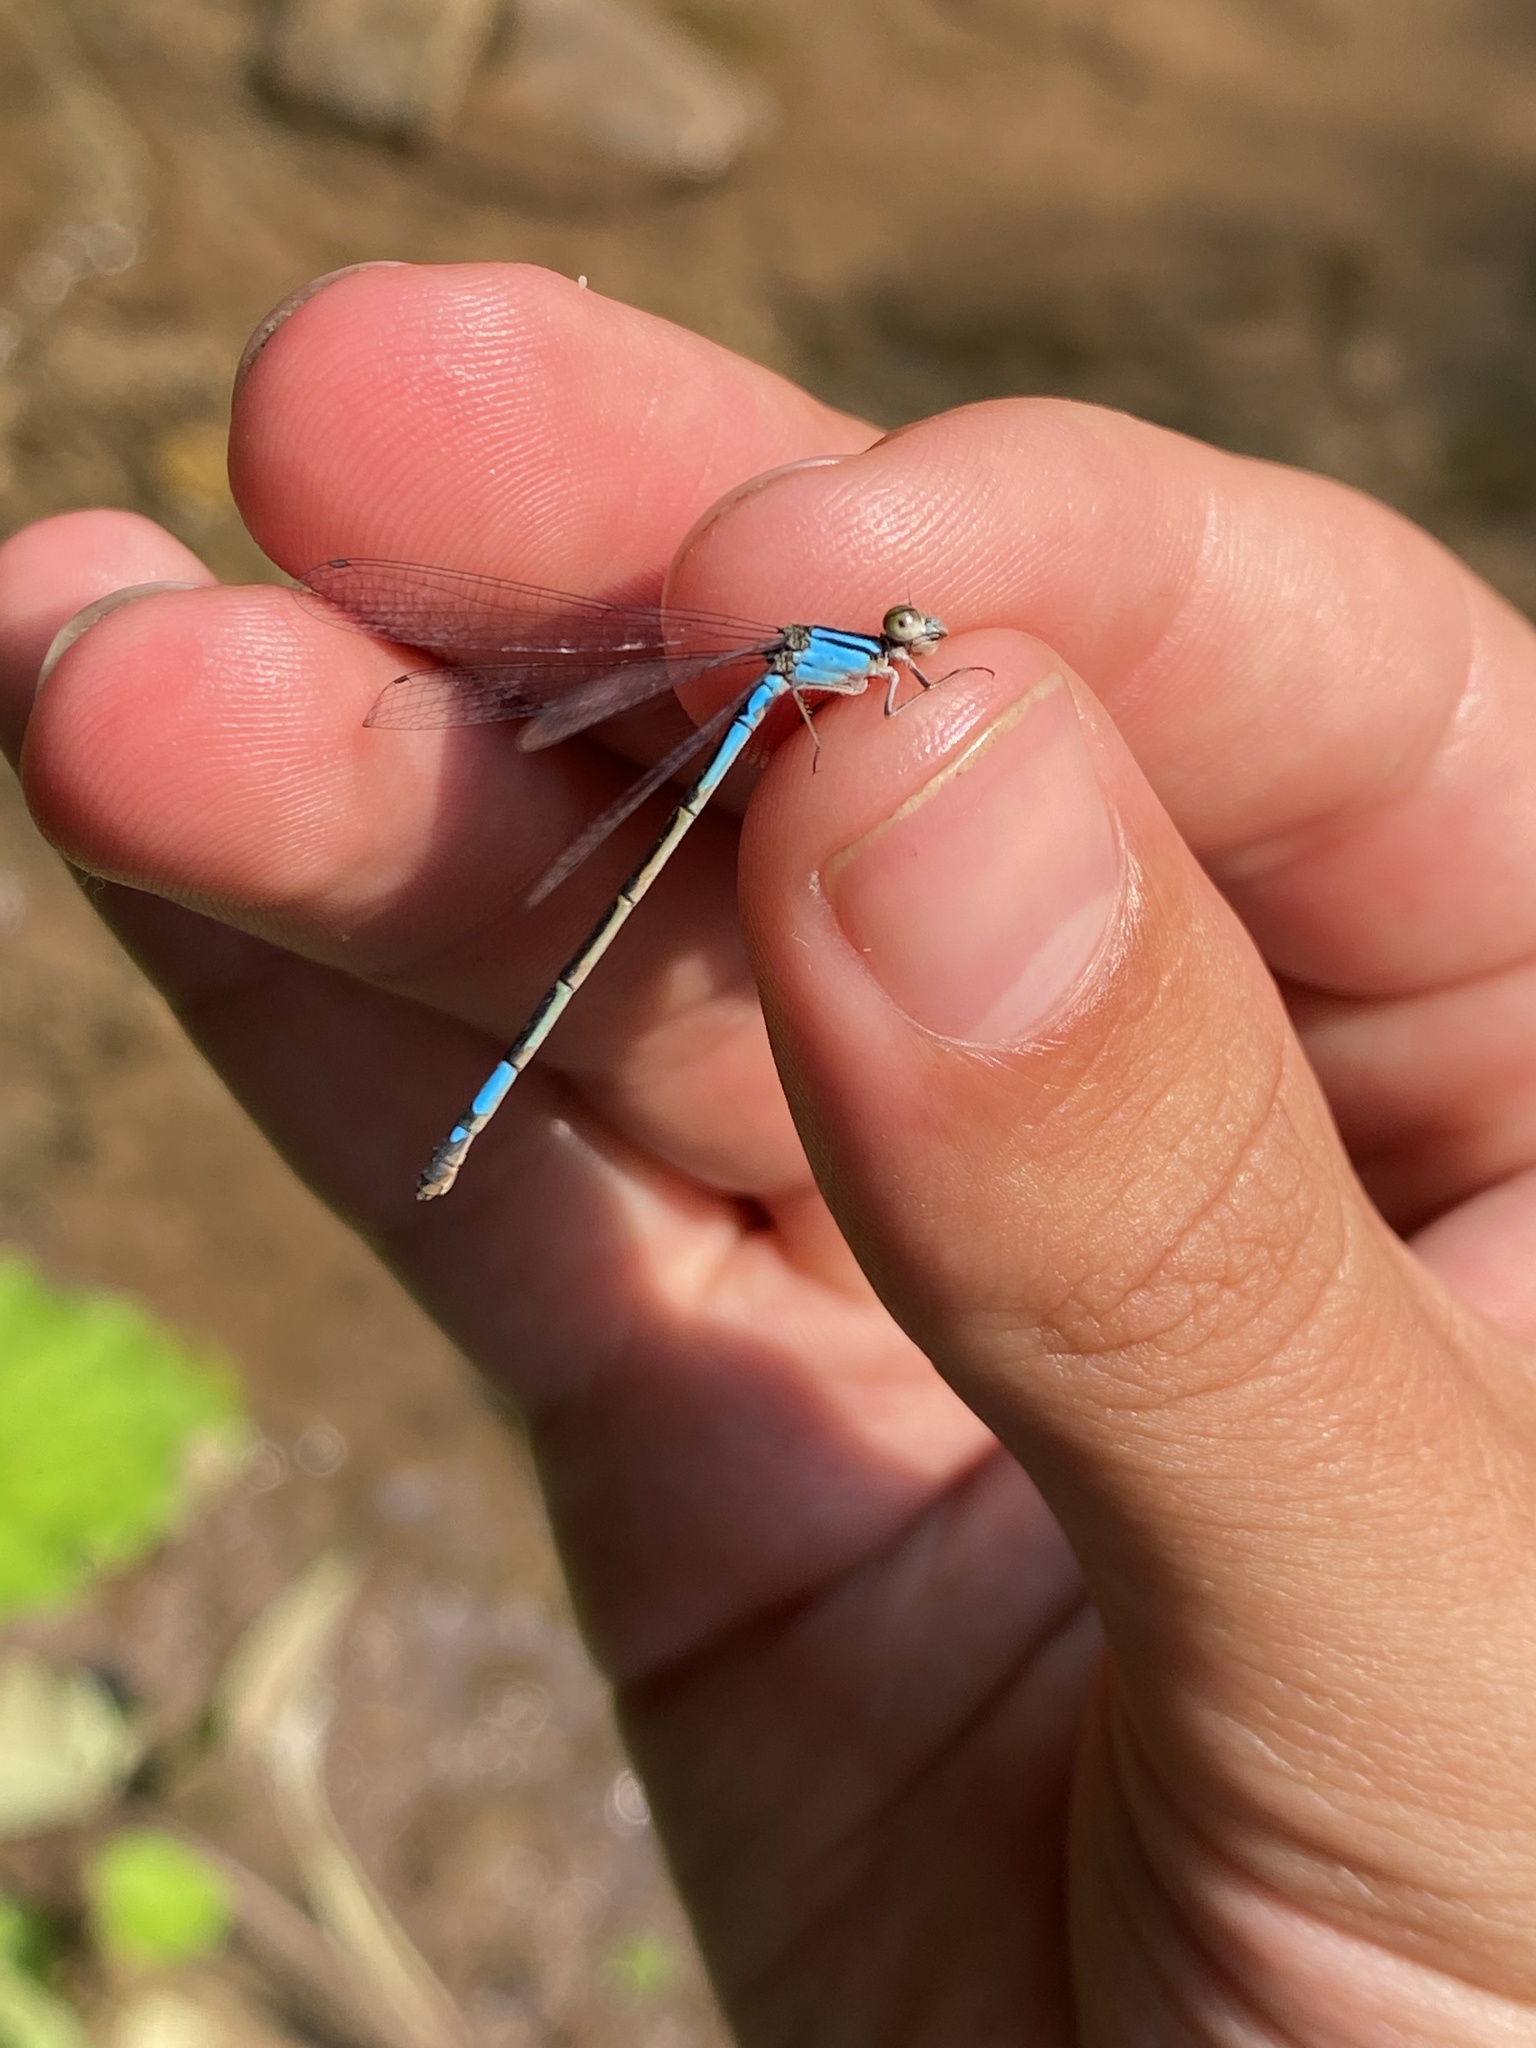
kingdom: Animalia
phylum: Arthropoda
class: Insecta
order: Odonata
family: Coenagrionidae
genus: Enallagma
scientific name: Enallagma aspersum
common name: Azure bluet
